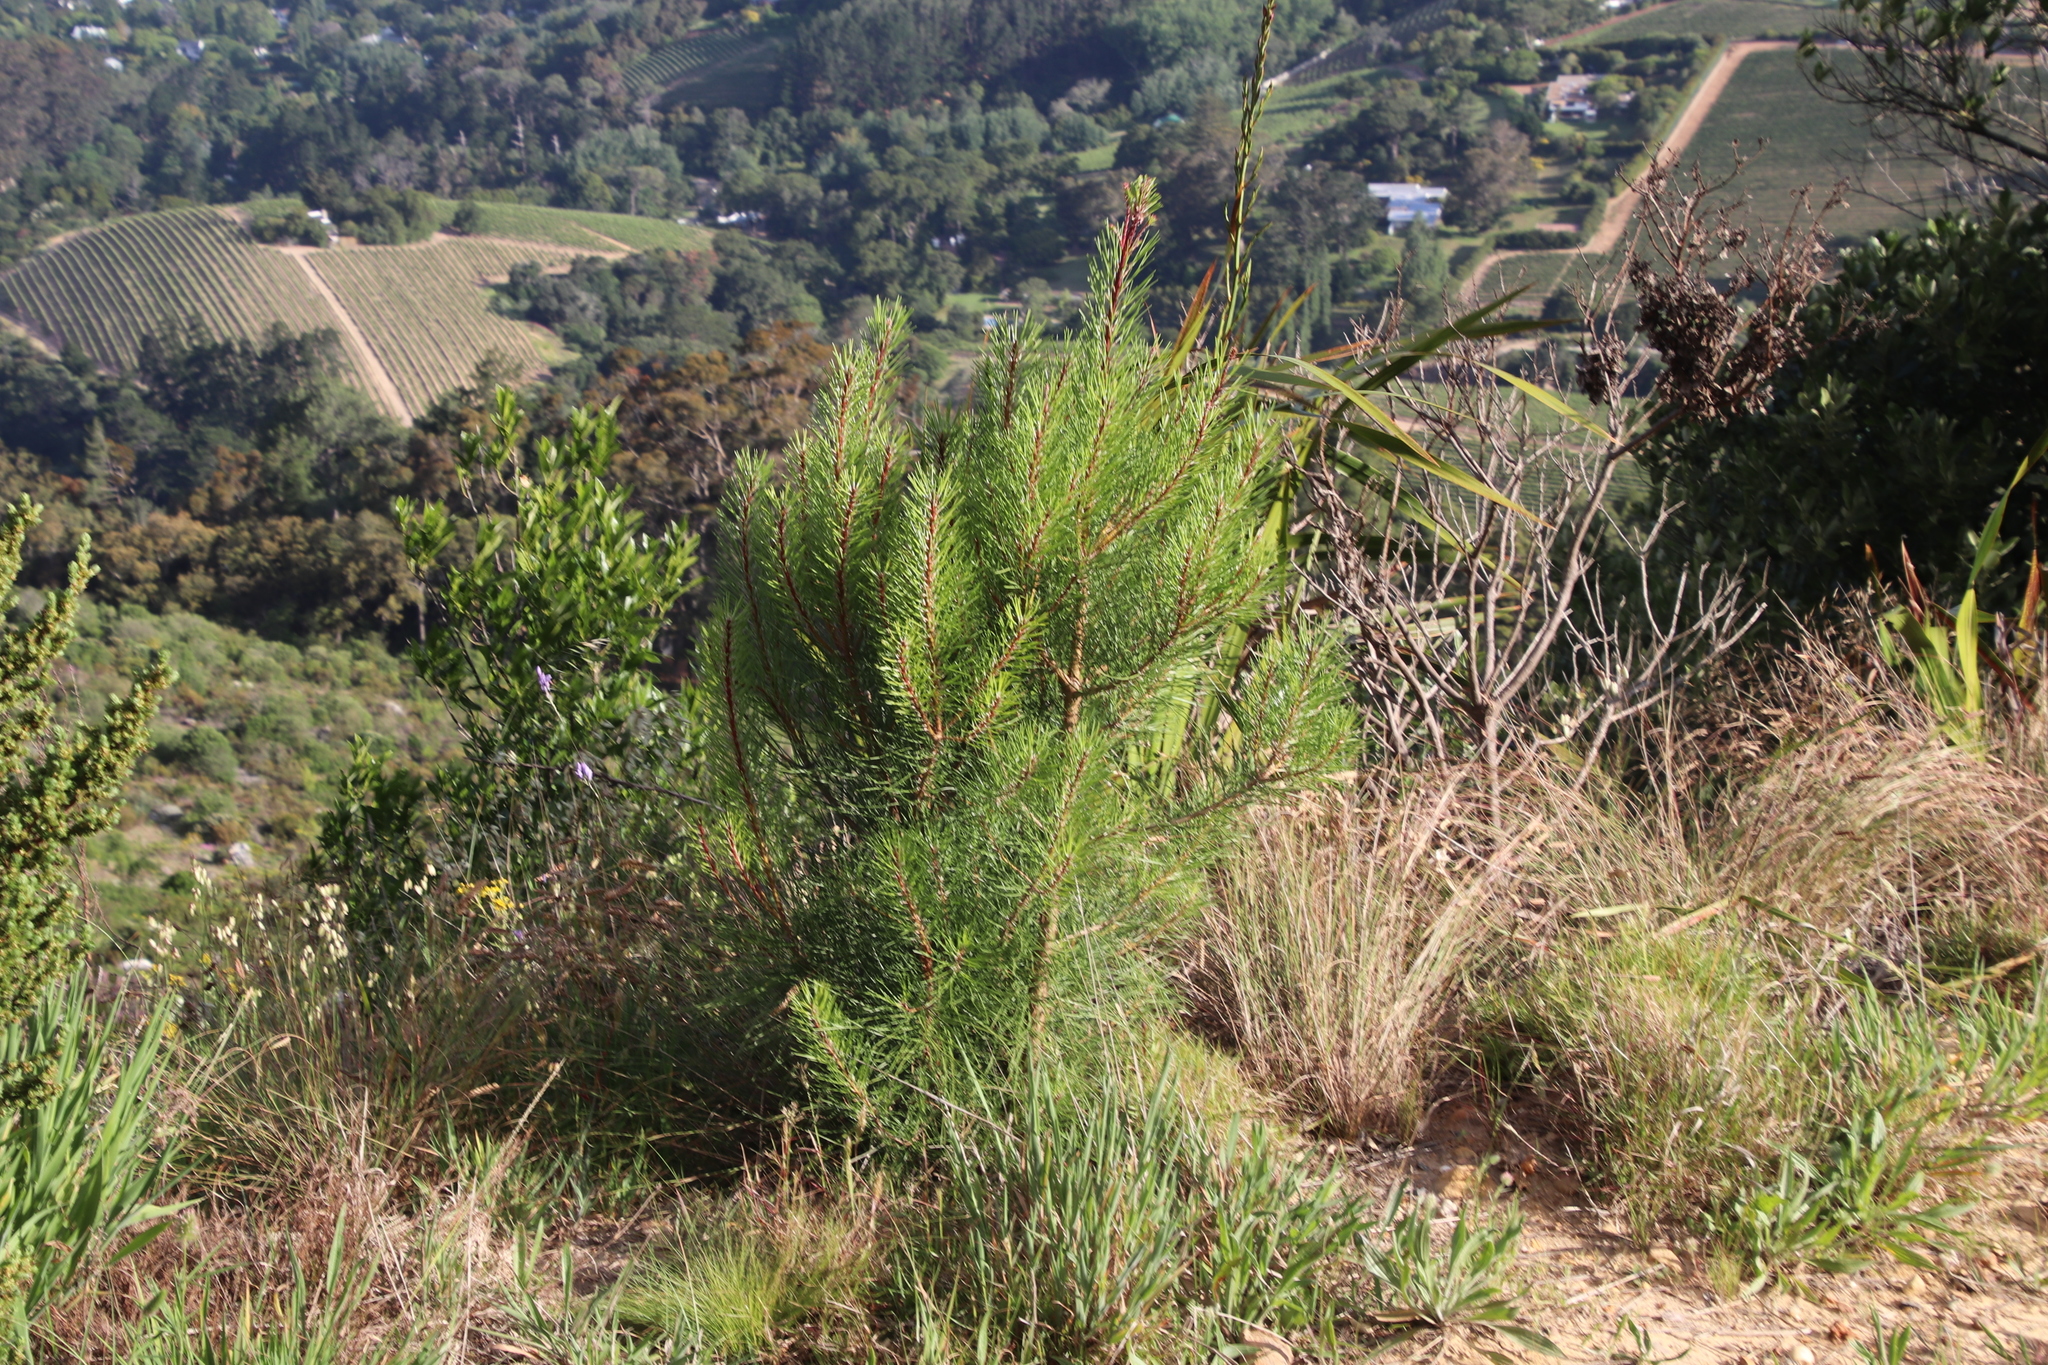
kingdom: Plantae
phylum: Tracheophyta
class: Pinopsida
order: Pinales
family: Pinaceae
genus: Pinus
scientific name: Pinus pinaster
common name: Maritime pine
